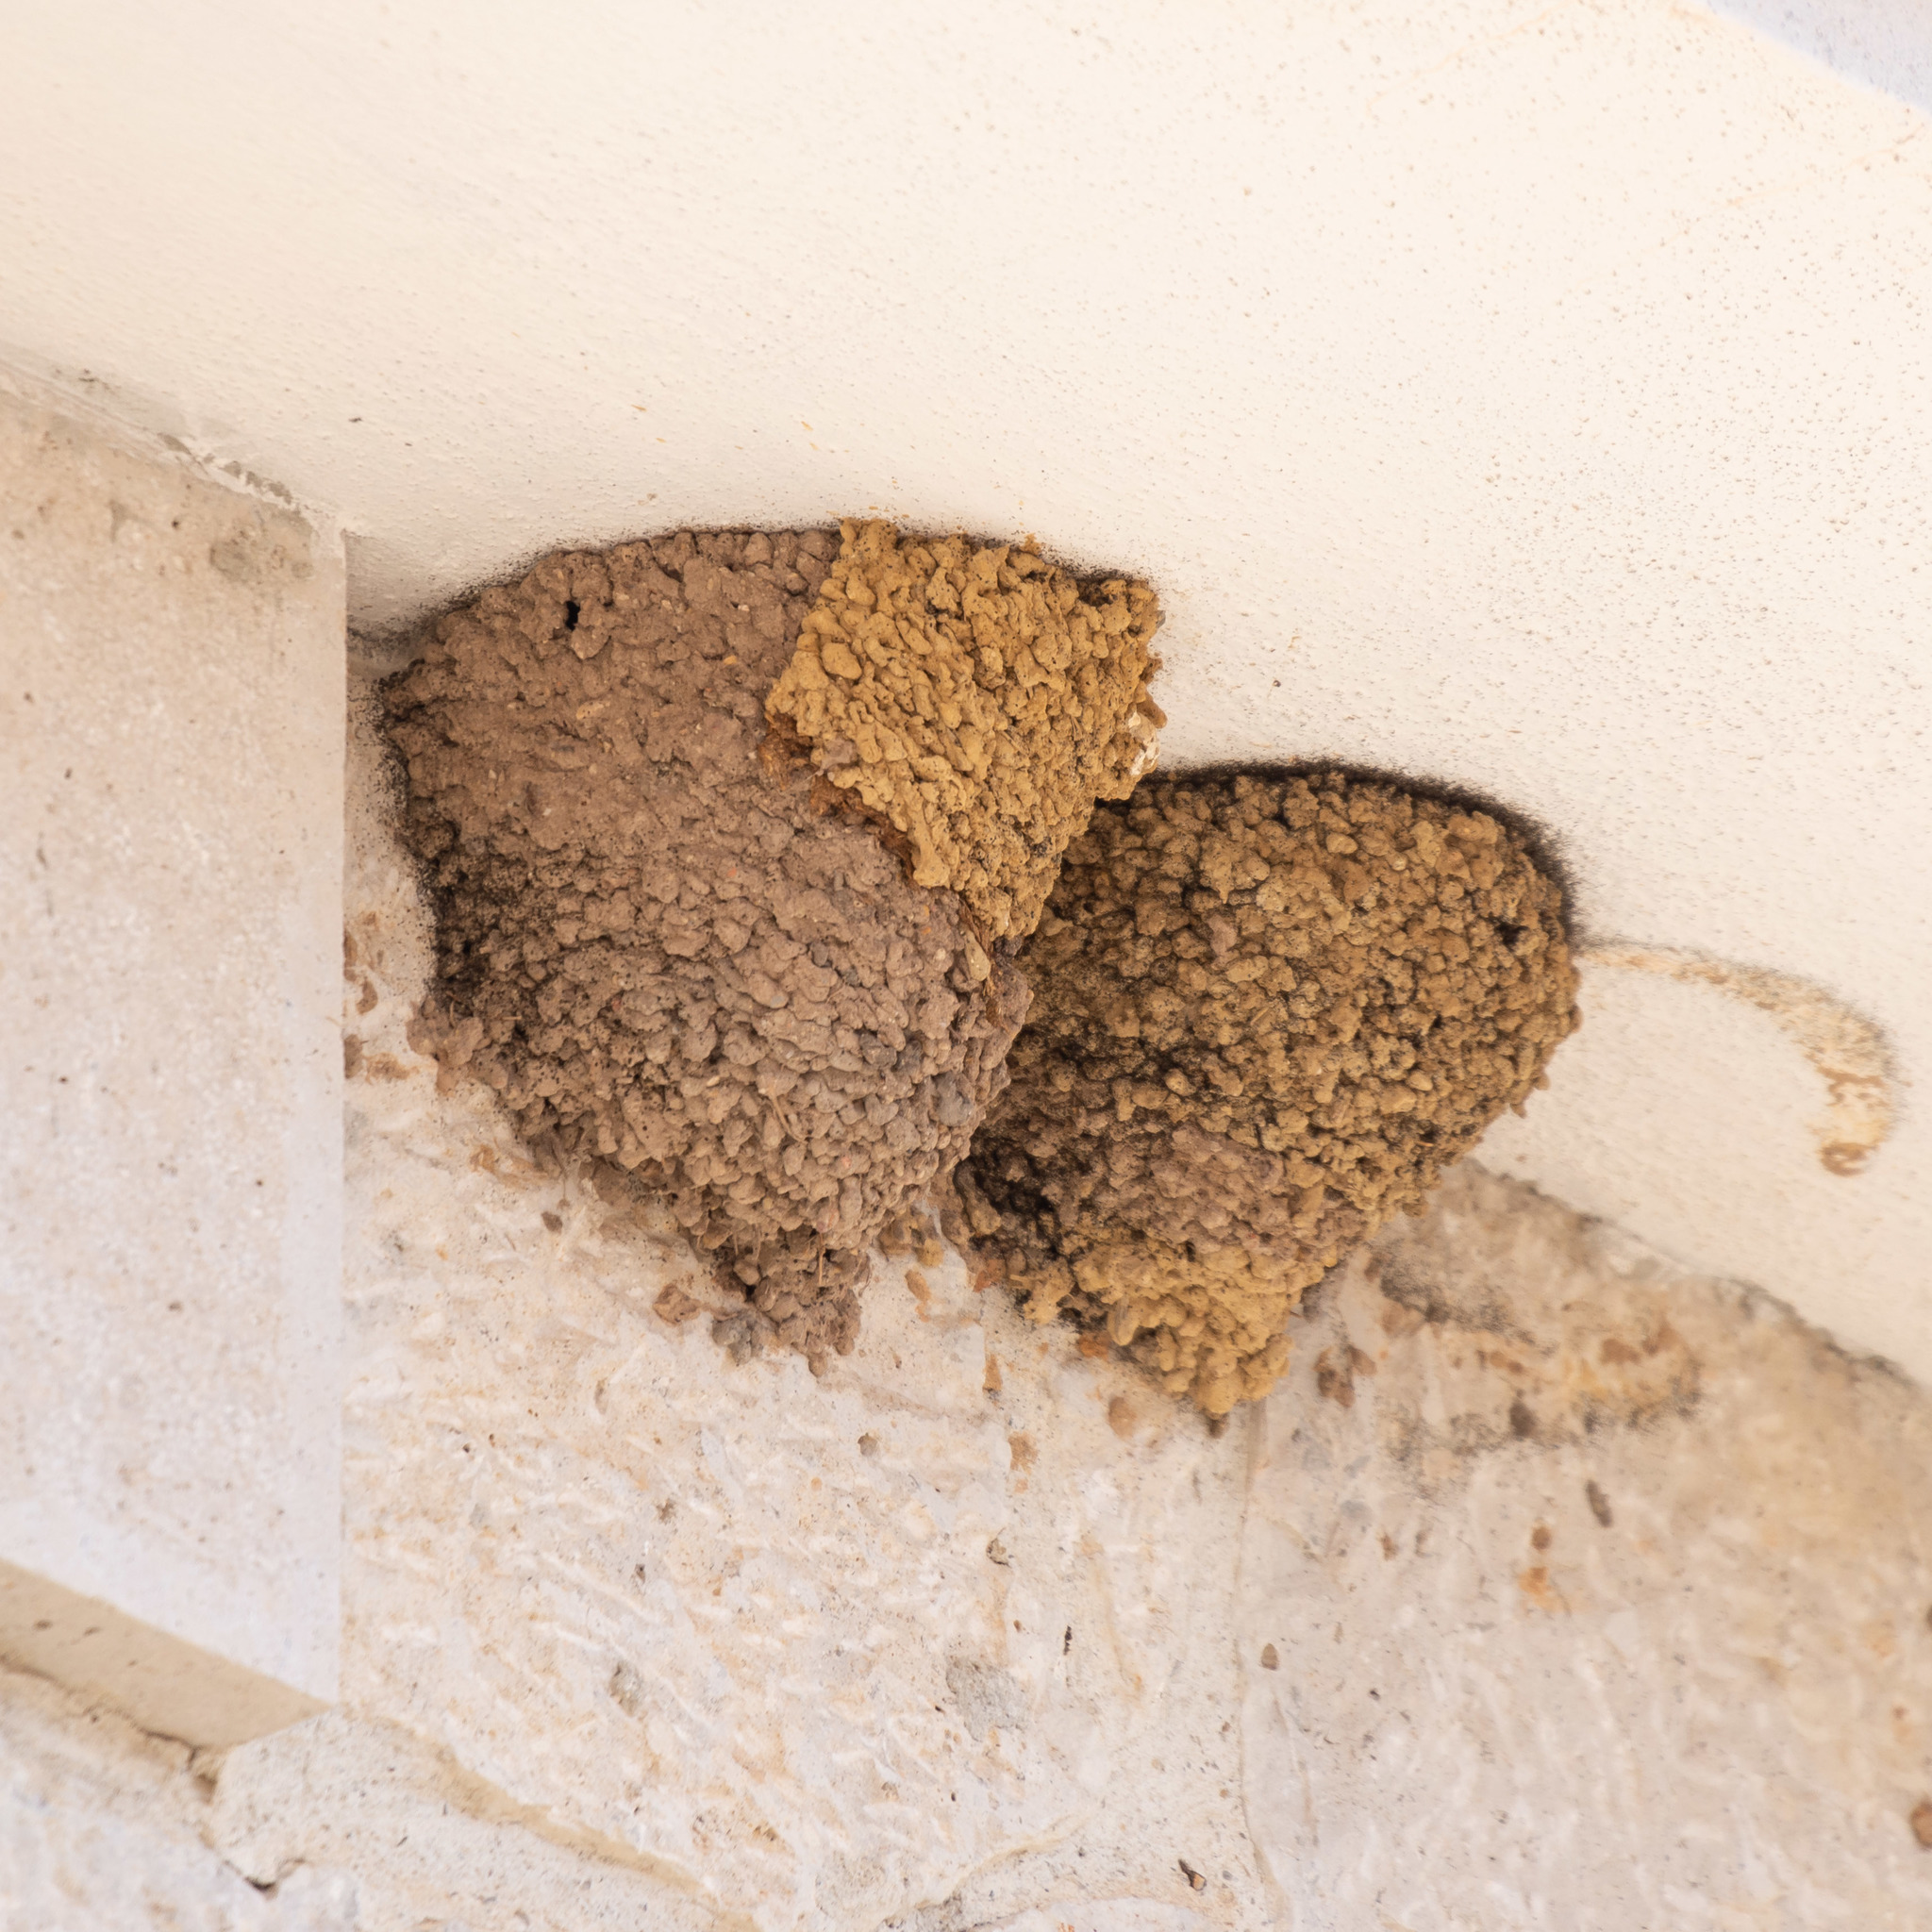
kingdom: Animalia
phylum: Chordata
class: Aves
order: Passeriformes
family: Hirundinidae
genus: Delichon
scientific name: Delichon urbicum
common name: Common house martin
